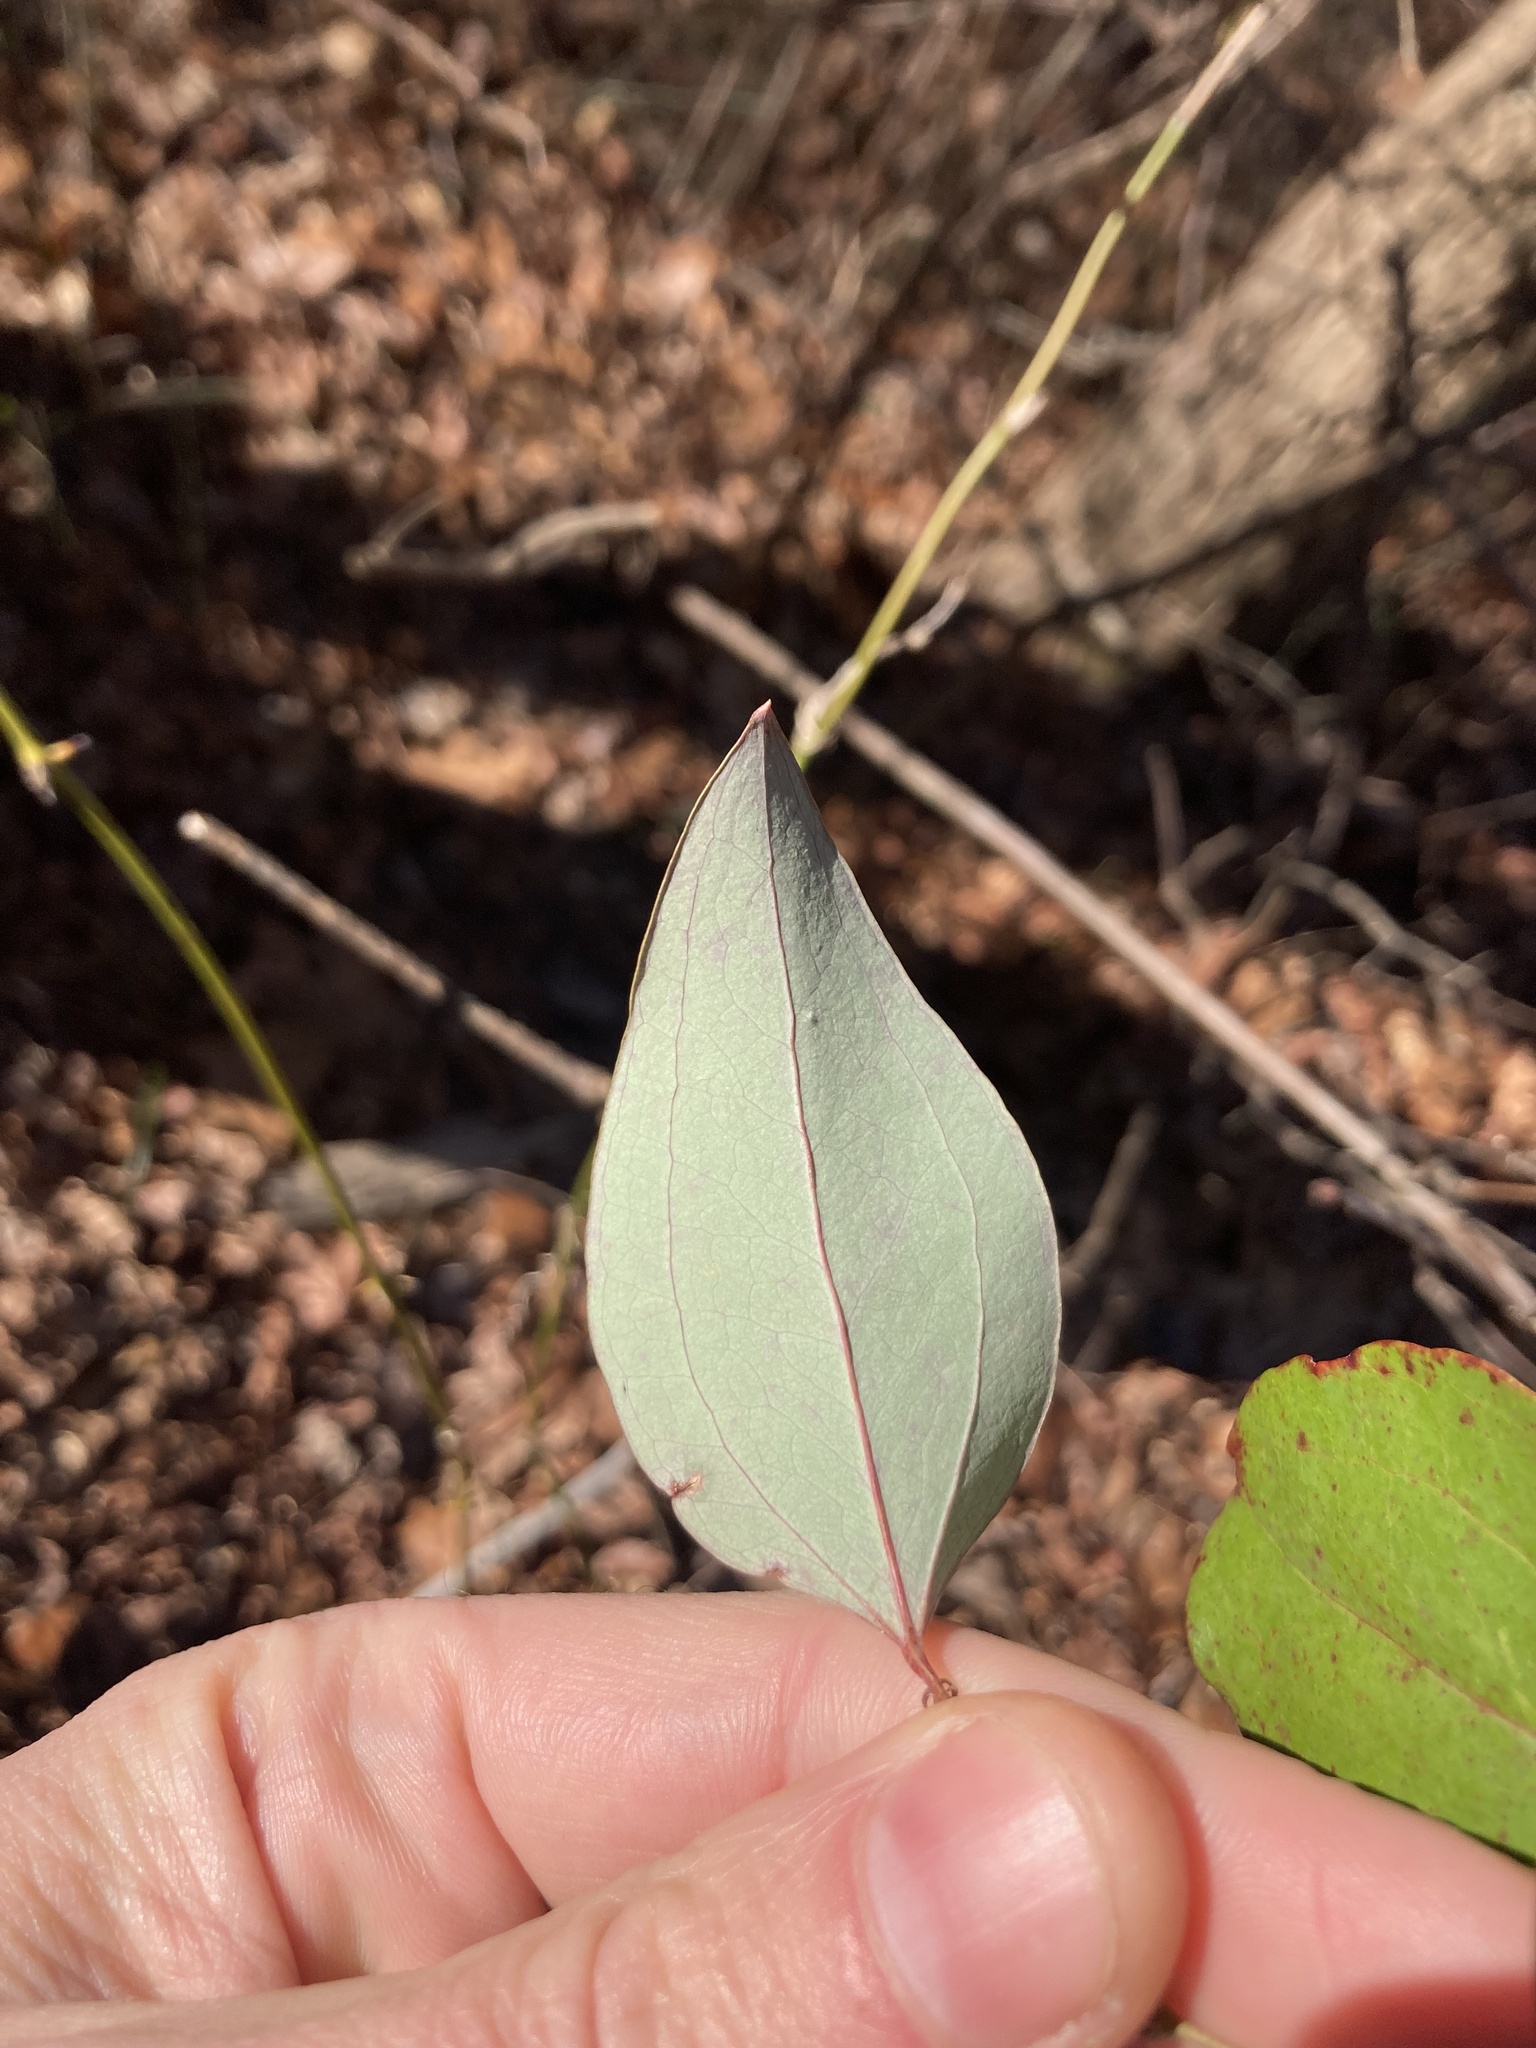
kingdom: Plantae
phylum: Tracheophyta
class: Liliopsida
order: Liliales
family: Smilacaceae
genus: Smilax
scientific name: Smilax glauca
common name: Cat greenbrier
